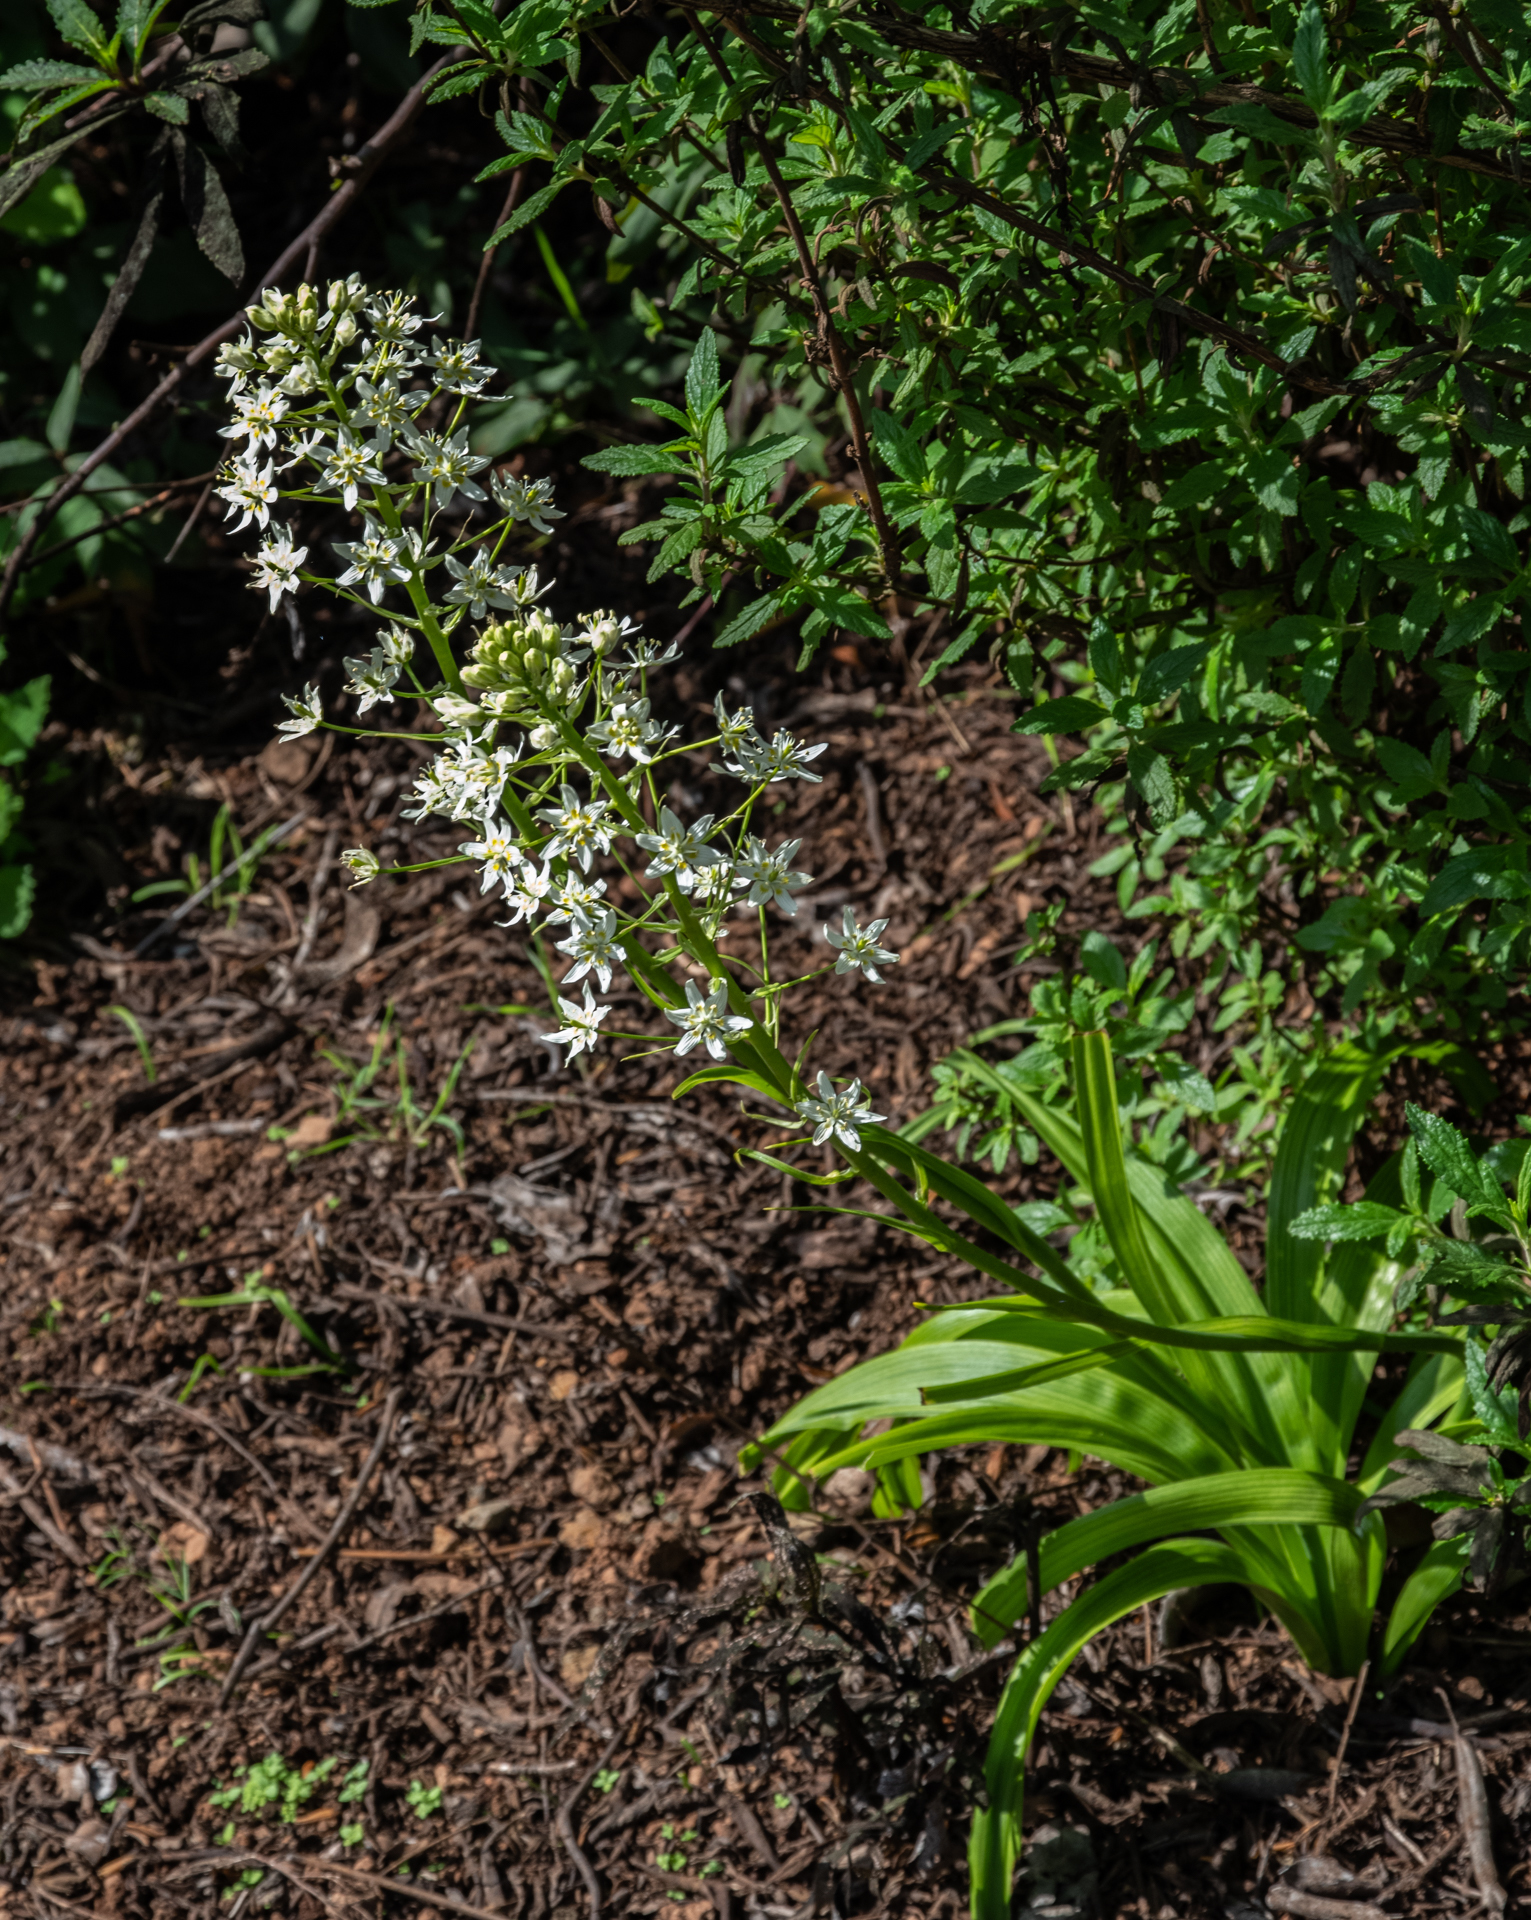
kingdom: Plantae
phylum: Tracheophyta
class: Liliopsida
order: Liliales
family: Melanthiaceae
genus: Toxicoscordion
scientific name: Toxicoscordion fremontii
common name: Fremont's death camas
